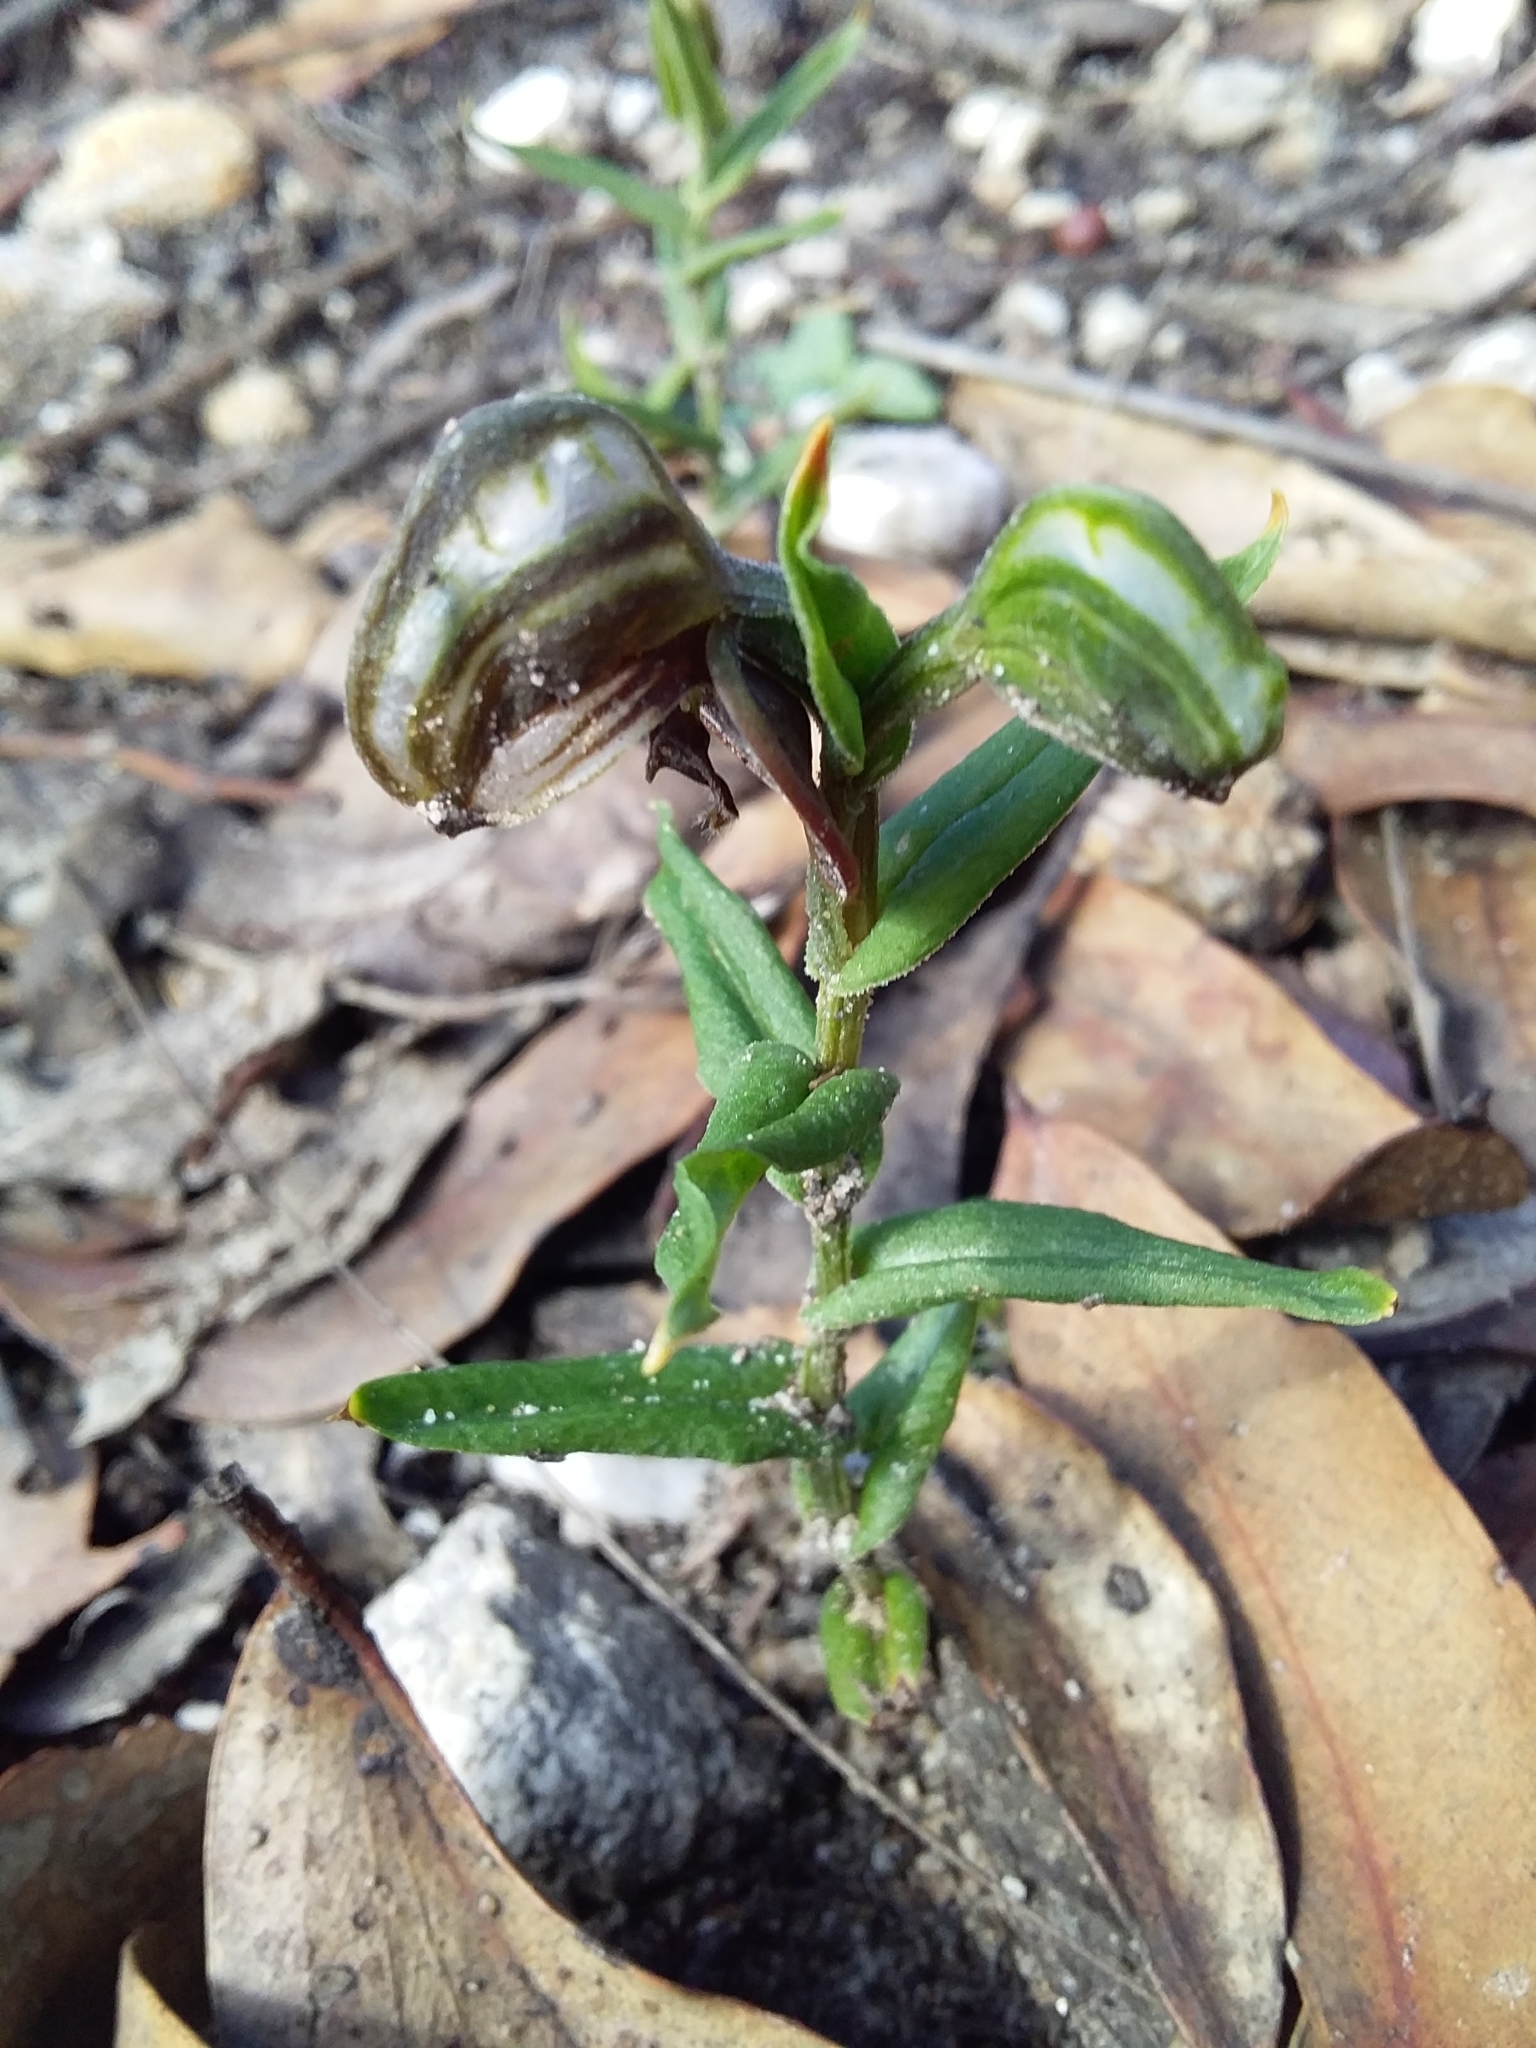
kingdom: Plantae
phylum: Tracheophyta
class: Liliopsida
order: Asparagales
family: Orchidaceae
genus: Pterostylis
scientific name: Pterostylis sanguinea
